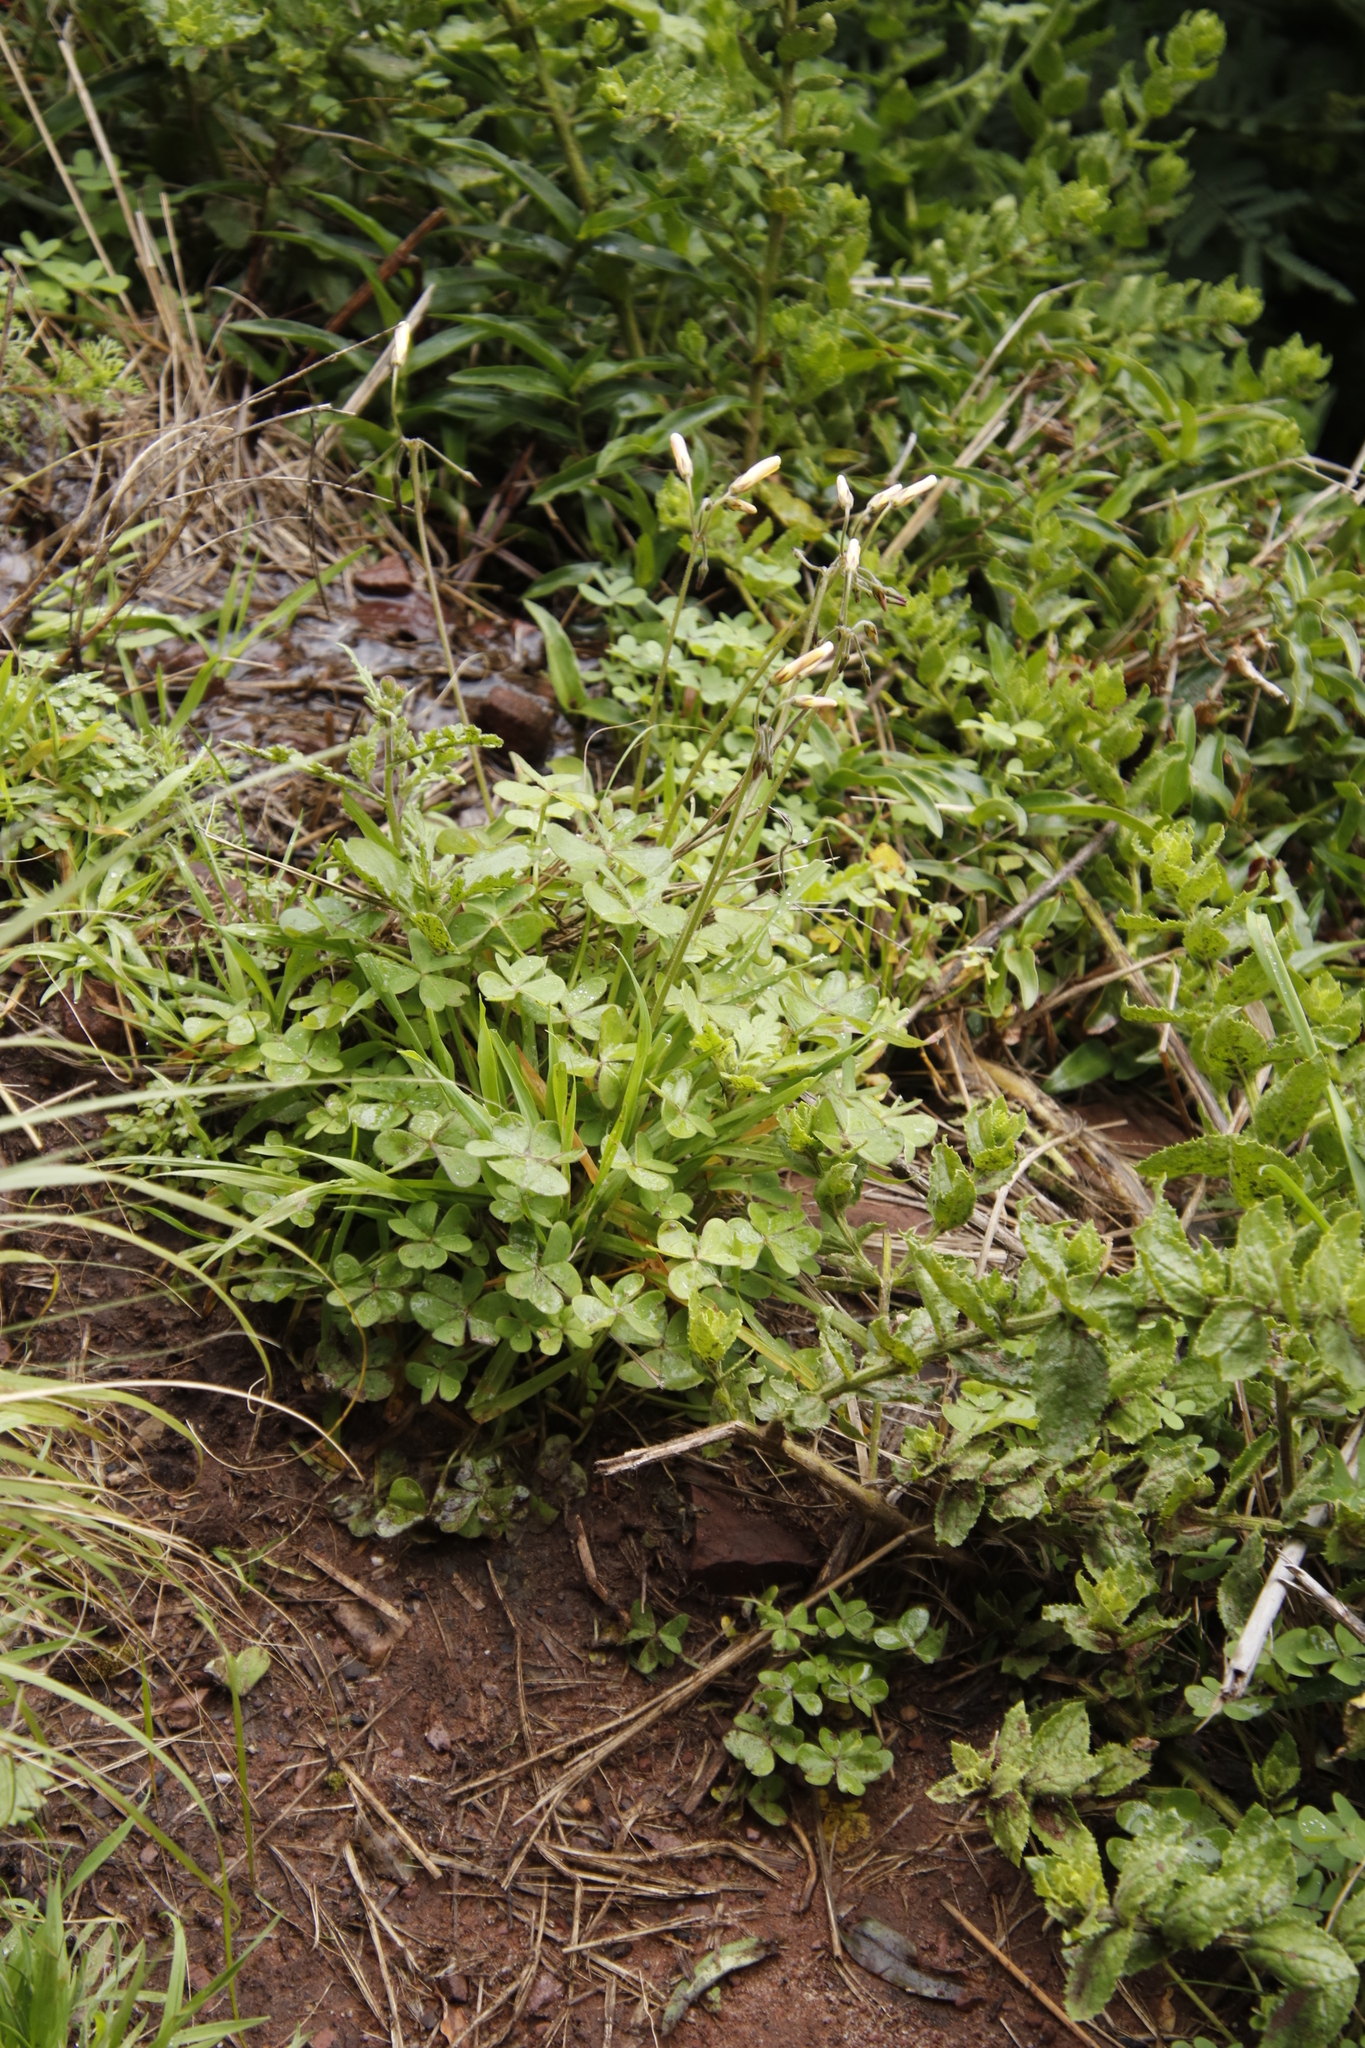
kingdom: Plantae
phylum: Tracheophyta
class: Magnoliopsida
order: Oxalidales
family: Oxalidaceae
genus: Oxalis
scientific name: Oxalis pes-caprae
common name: Bermuda-buttercup
